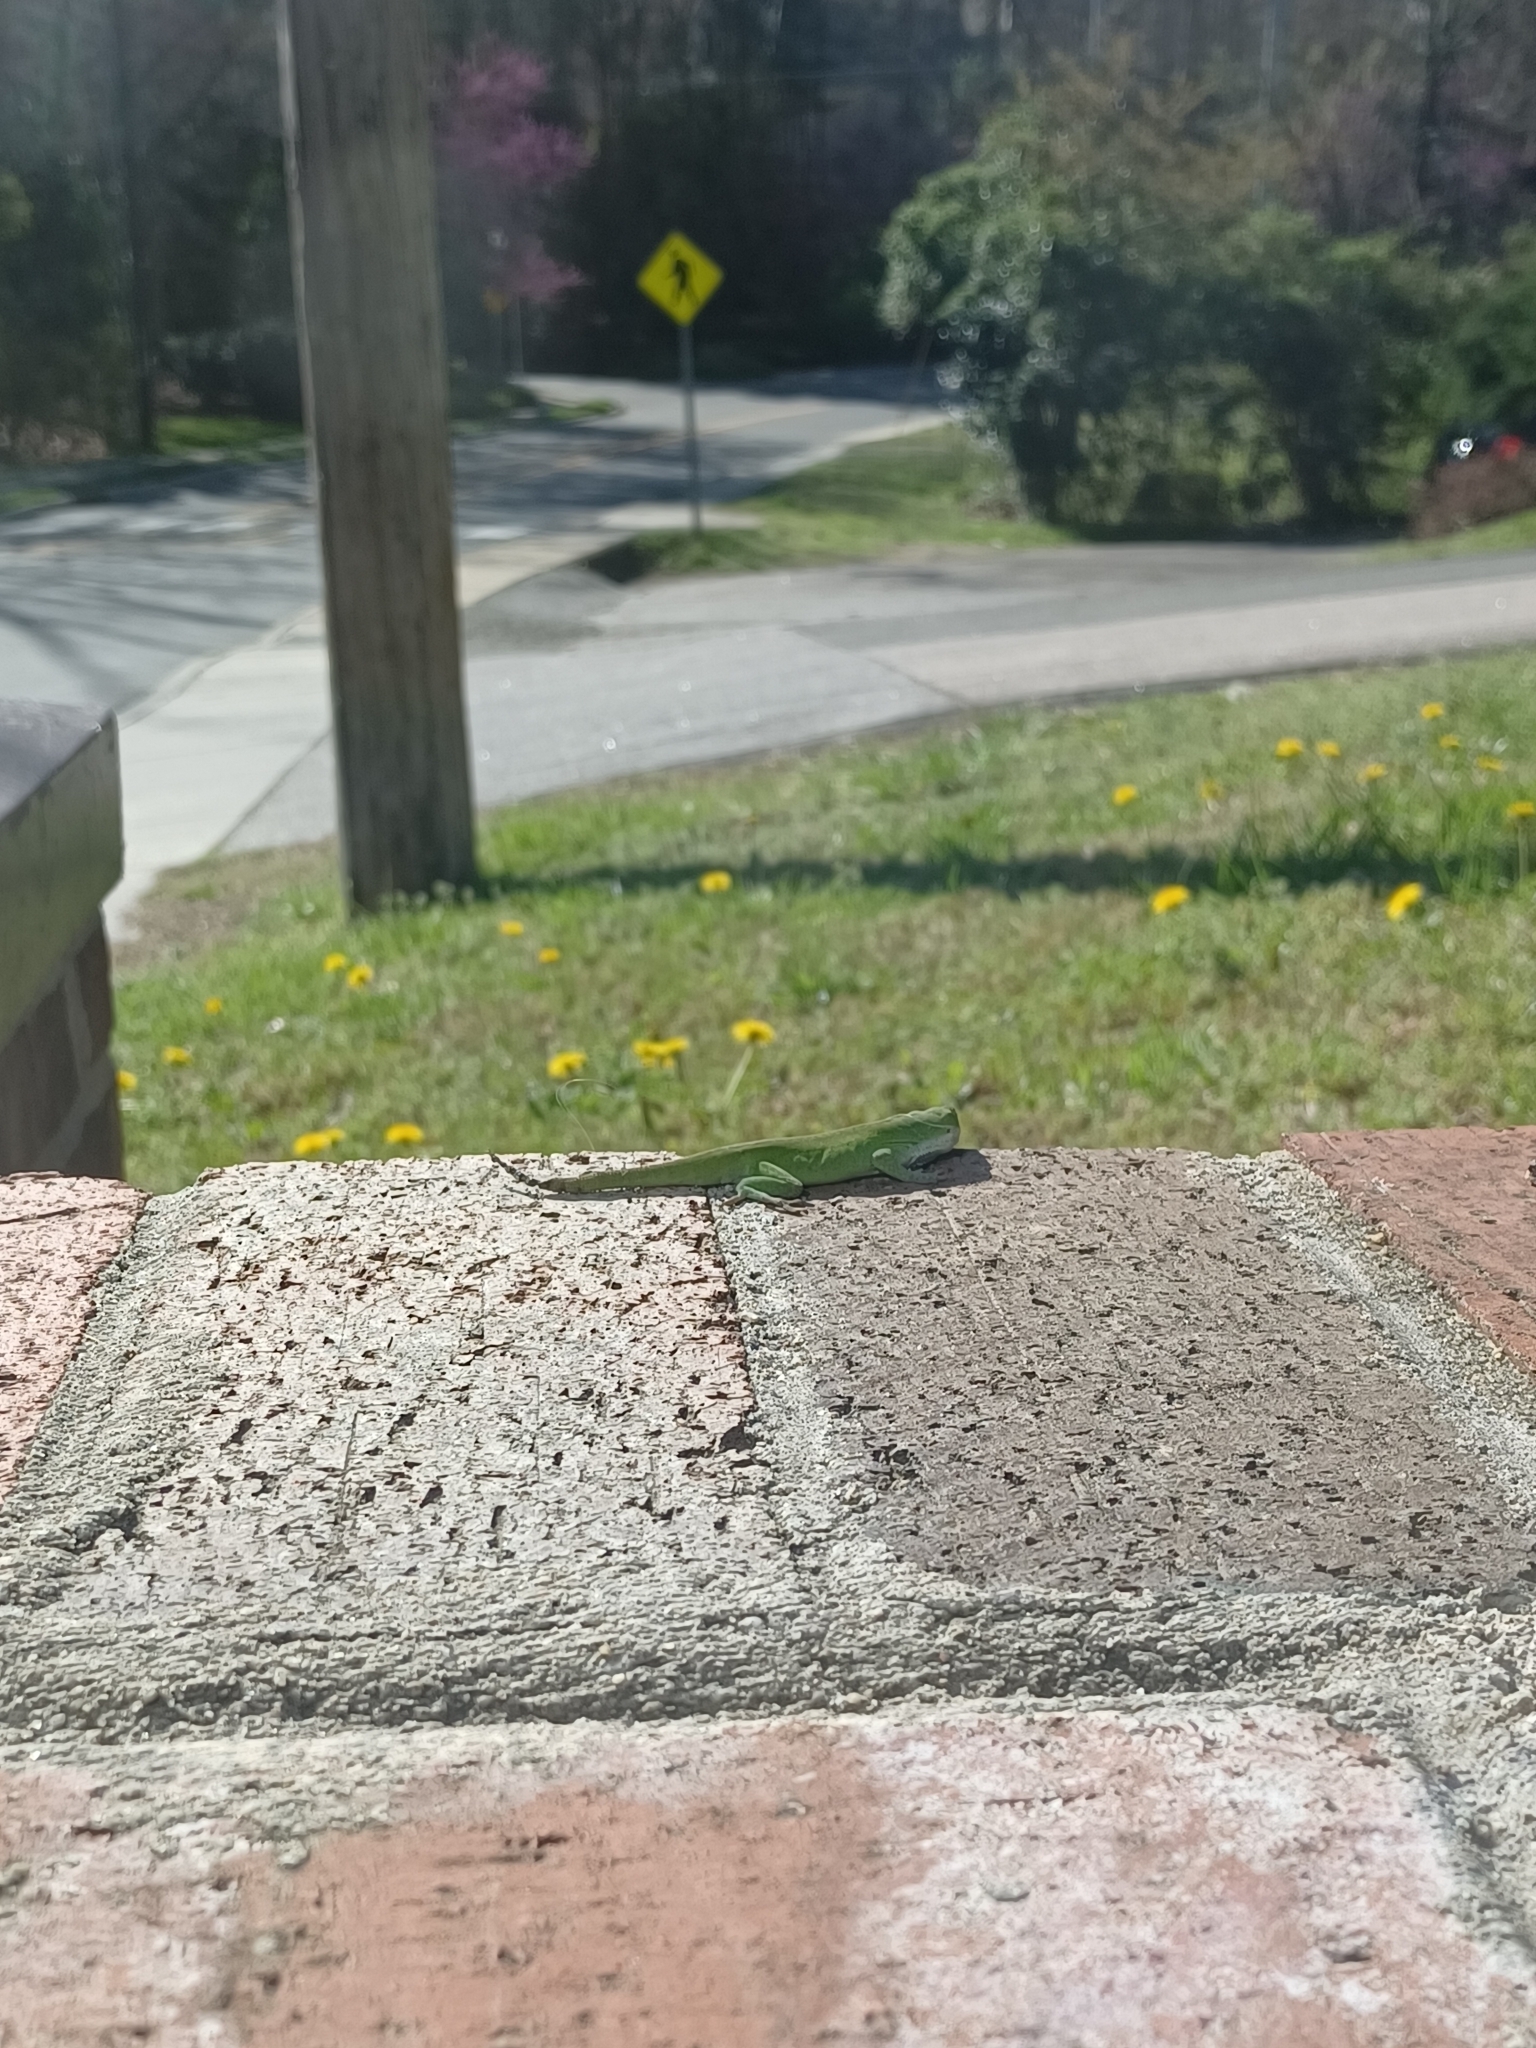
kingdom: Animalia
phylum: Chordata
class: Squamata
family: Dactyloidae
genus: Anolis
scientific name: Anolis carolinensis
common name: Green anole
